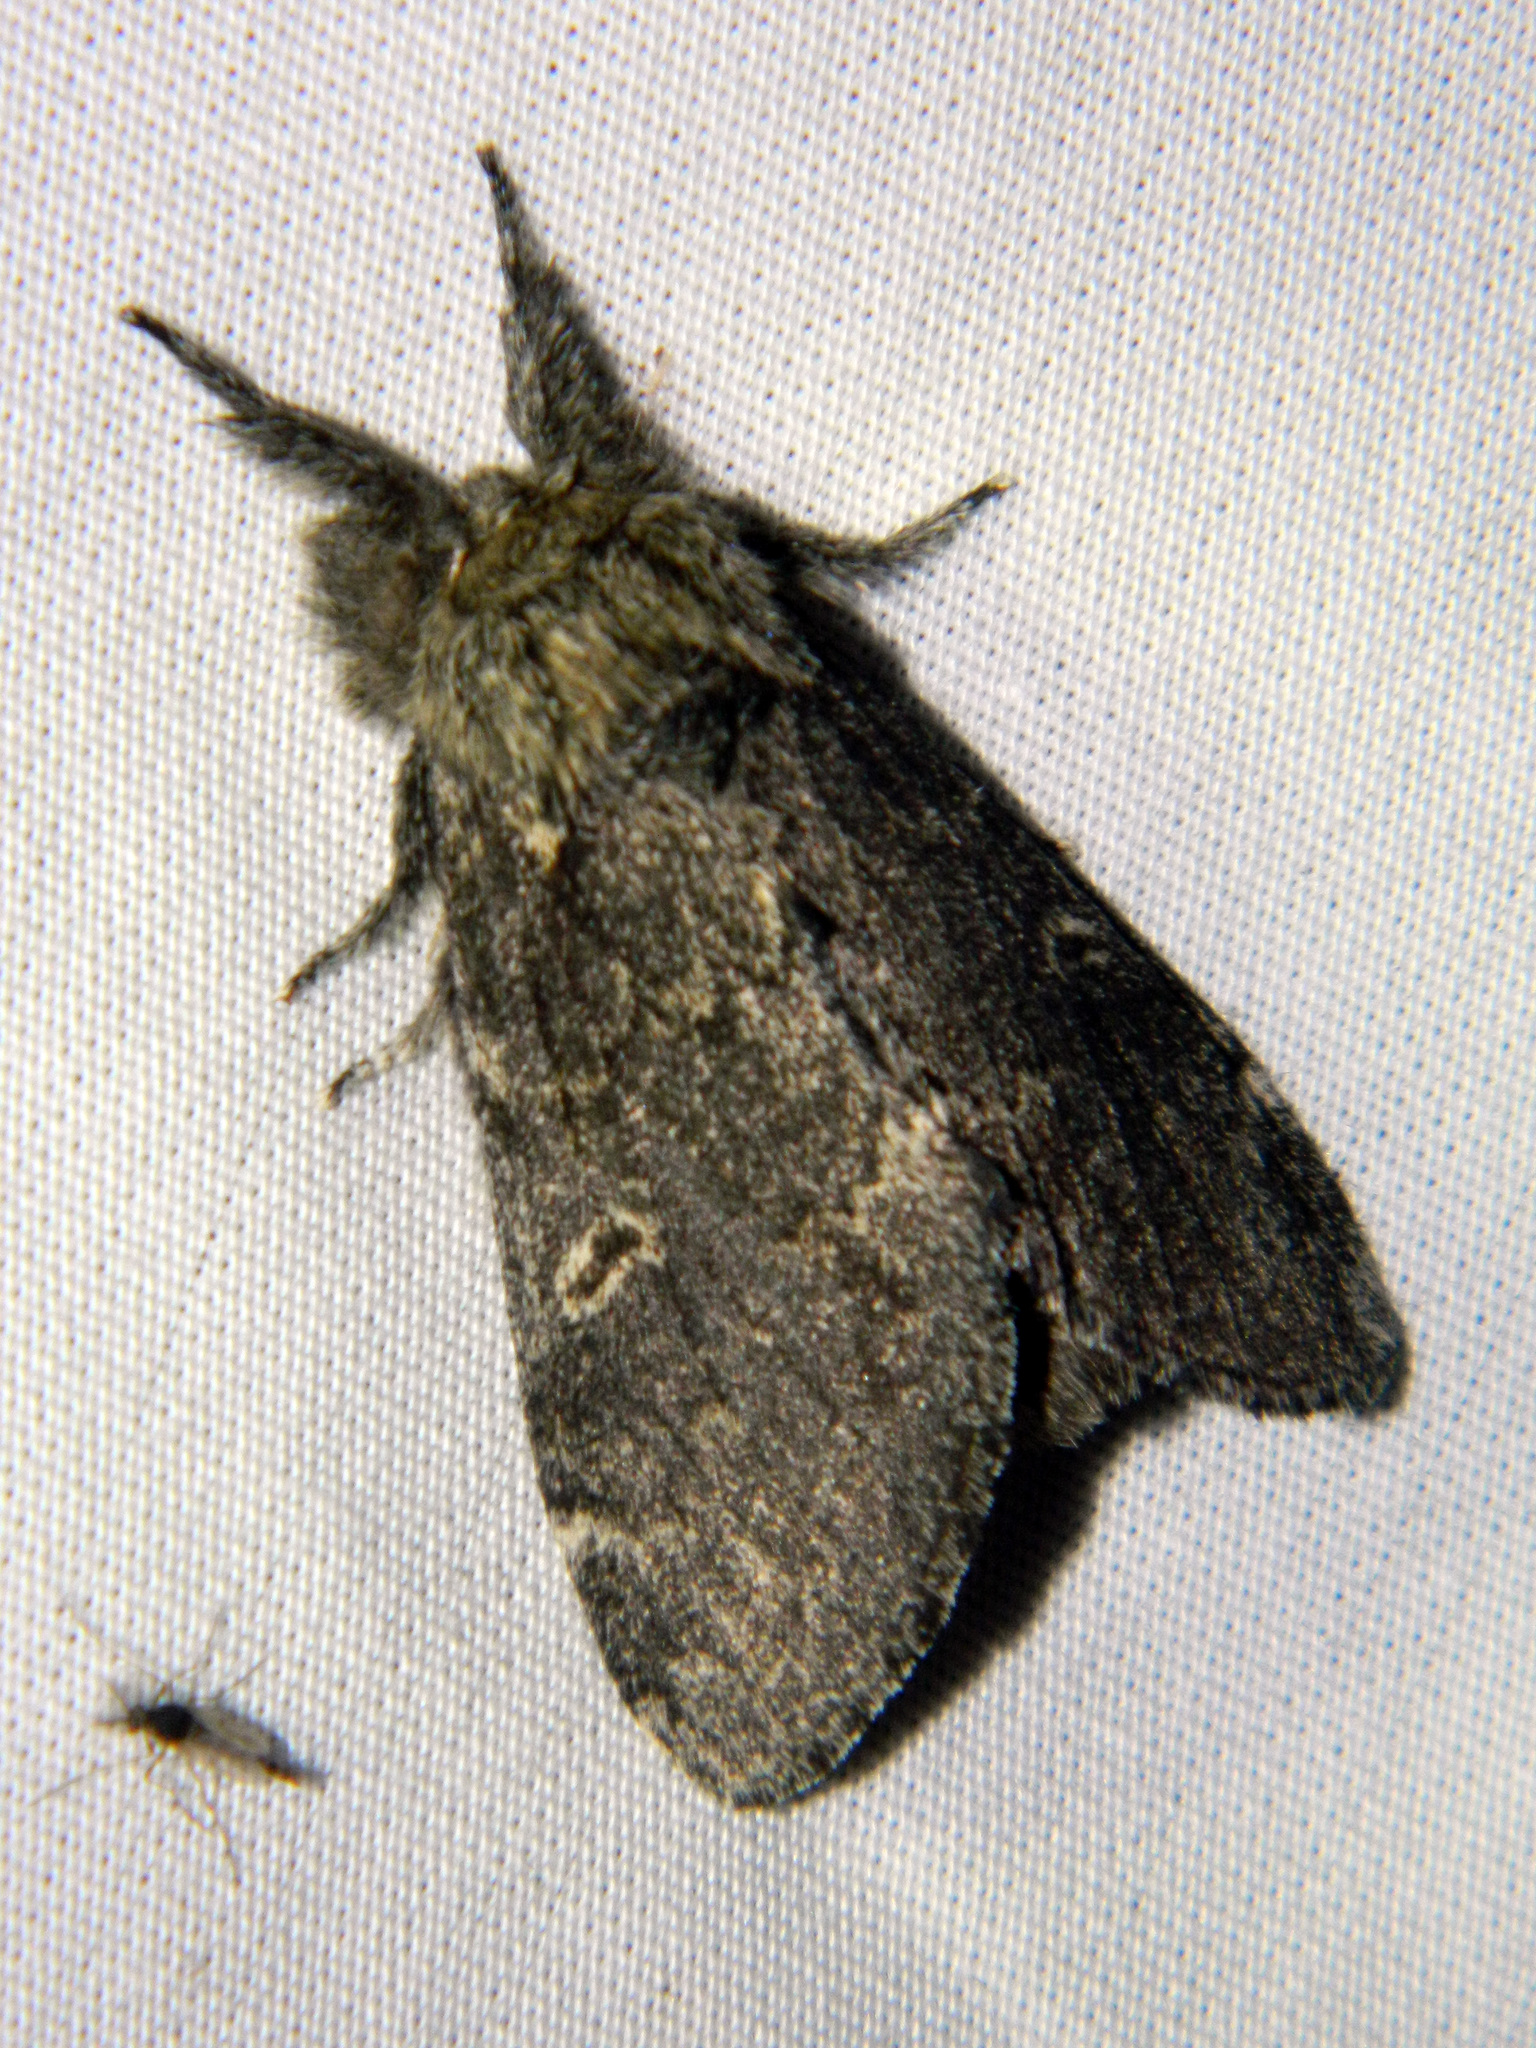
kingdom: Animalia
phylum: Arthropoda
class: Insecta
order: Lepidoptera
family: Notodontidae
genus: Notodonta
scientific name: Notodonta torva
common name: Large dark prominent
